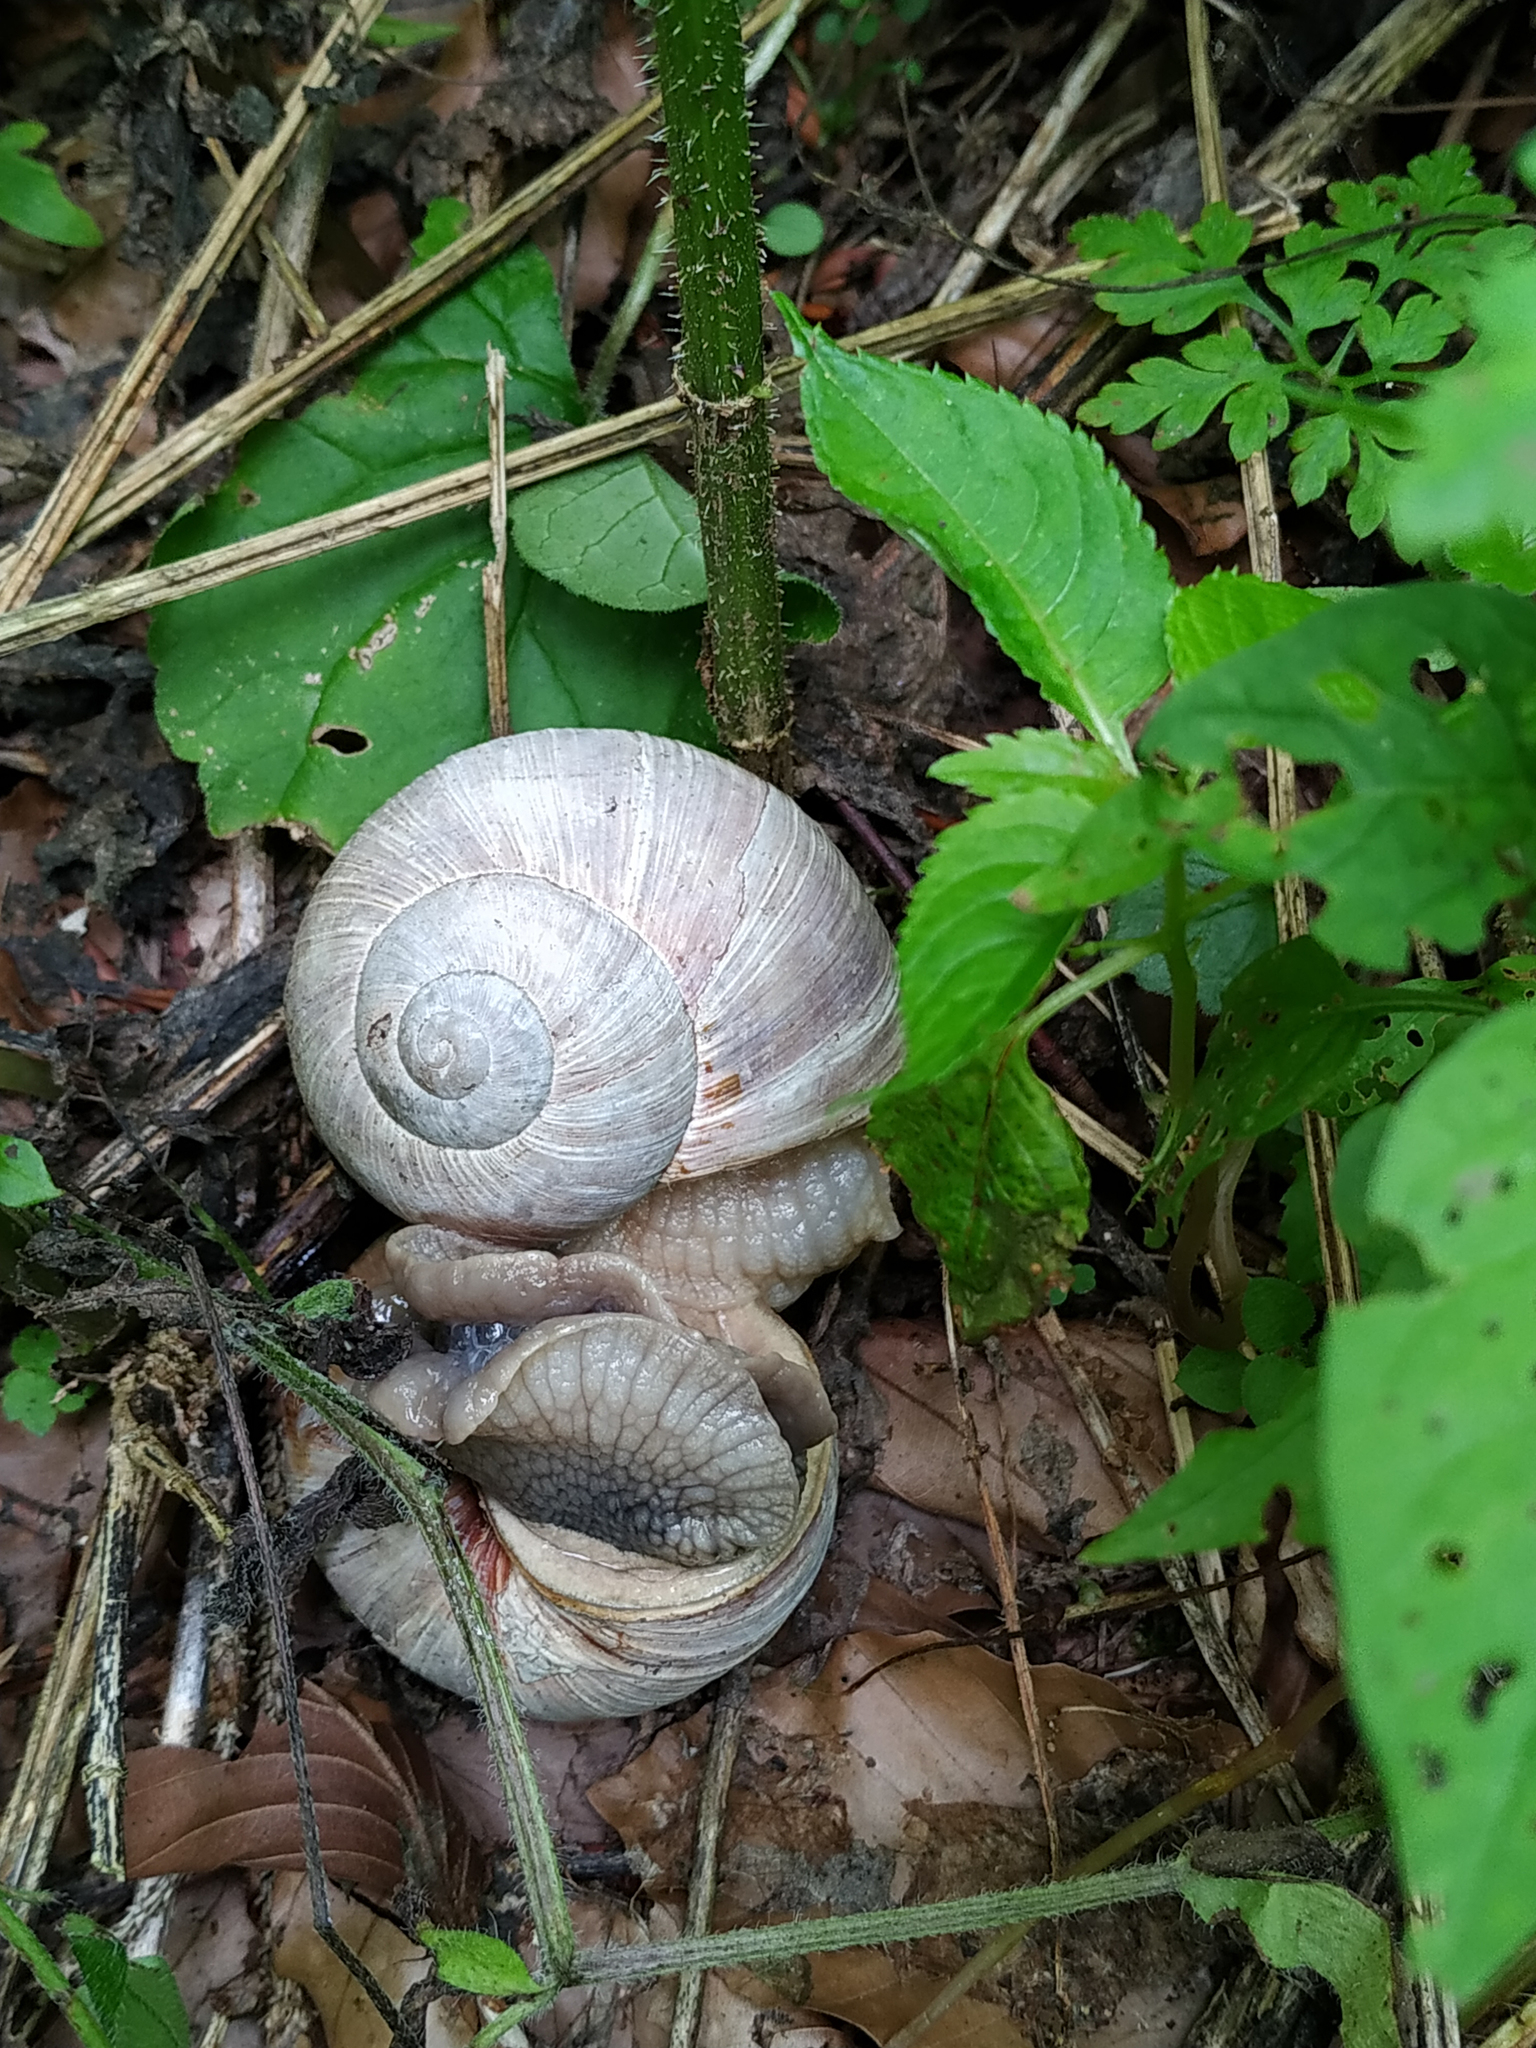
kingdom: Animalia
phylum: Mollusca
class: Gastropoda
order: Stylommatophora
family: Helicidae
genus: Helix
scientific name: Helix pomatia
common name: Roman snail
